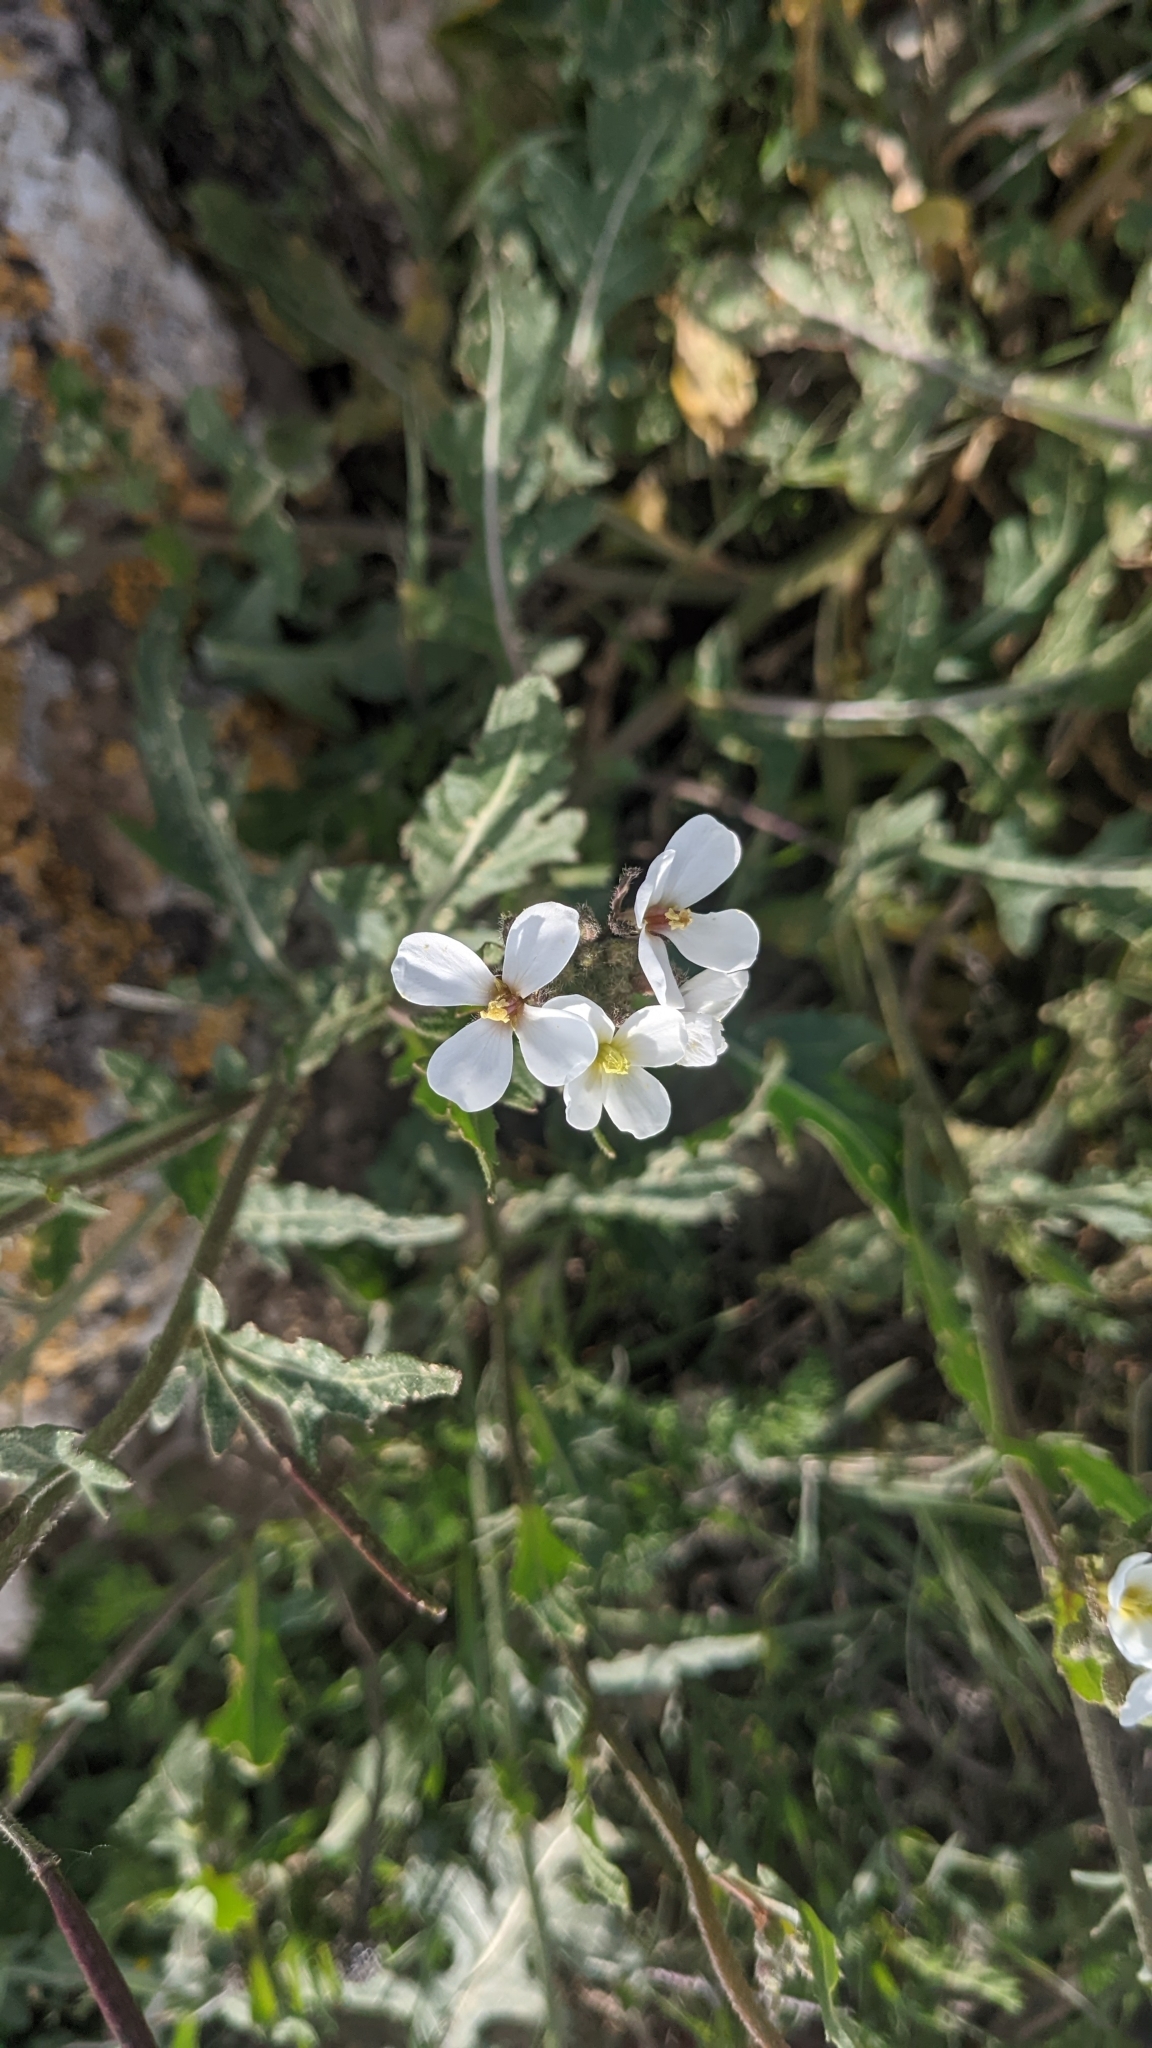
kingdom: Plantae
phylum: Tracheophyta
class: Magnoliopsida
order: Brassicales
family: Brassicaceae
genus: Diplotaxis
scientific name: Diplotaxis erucoides
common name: White rocket
